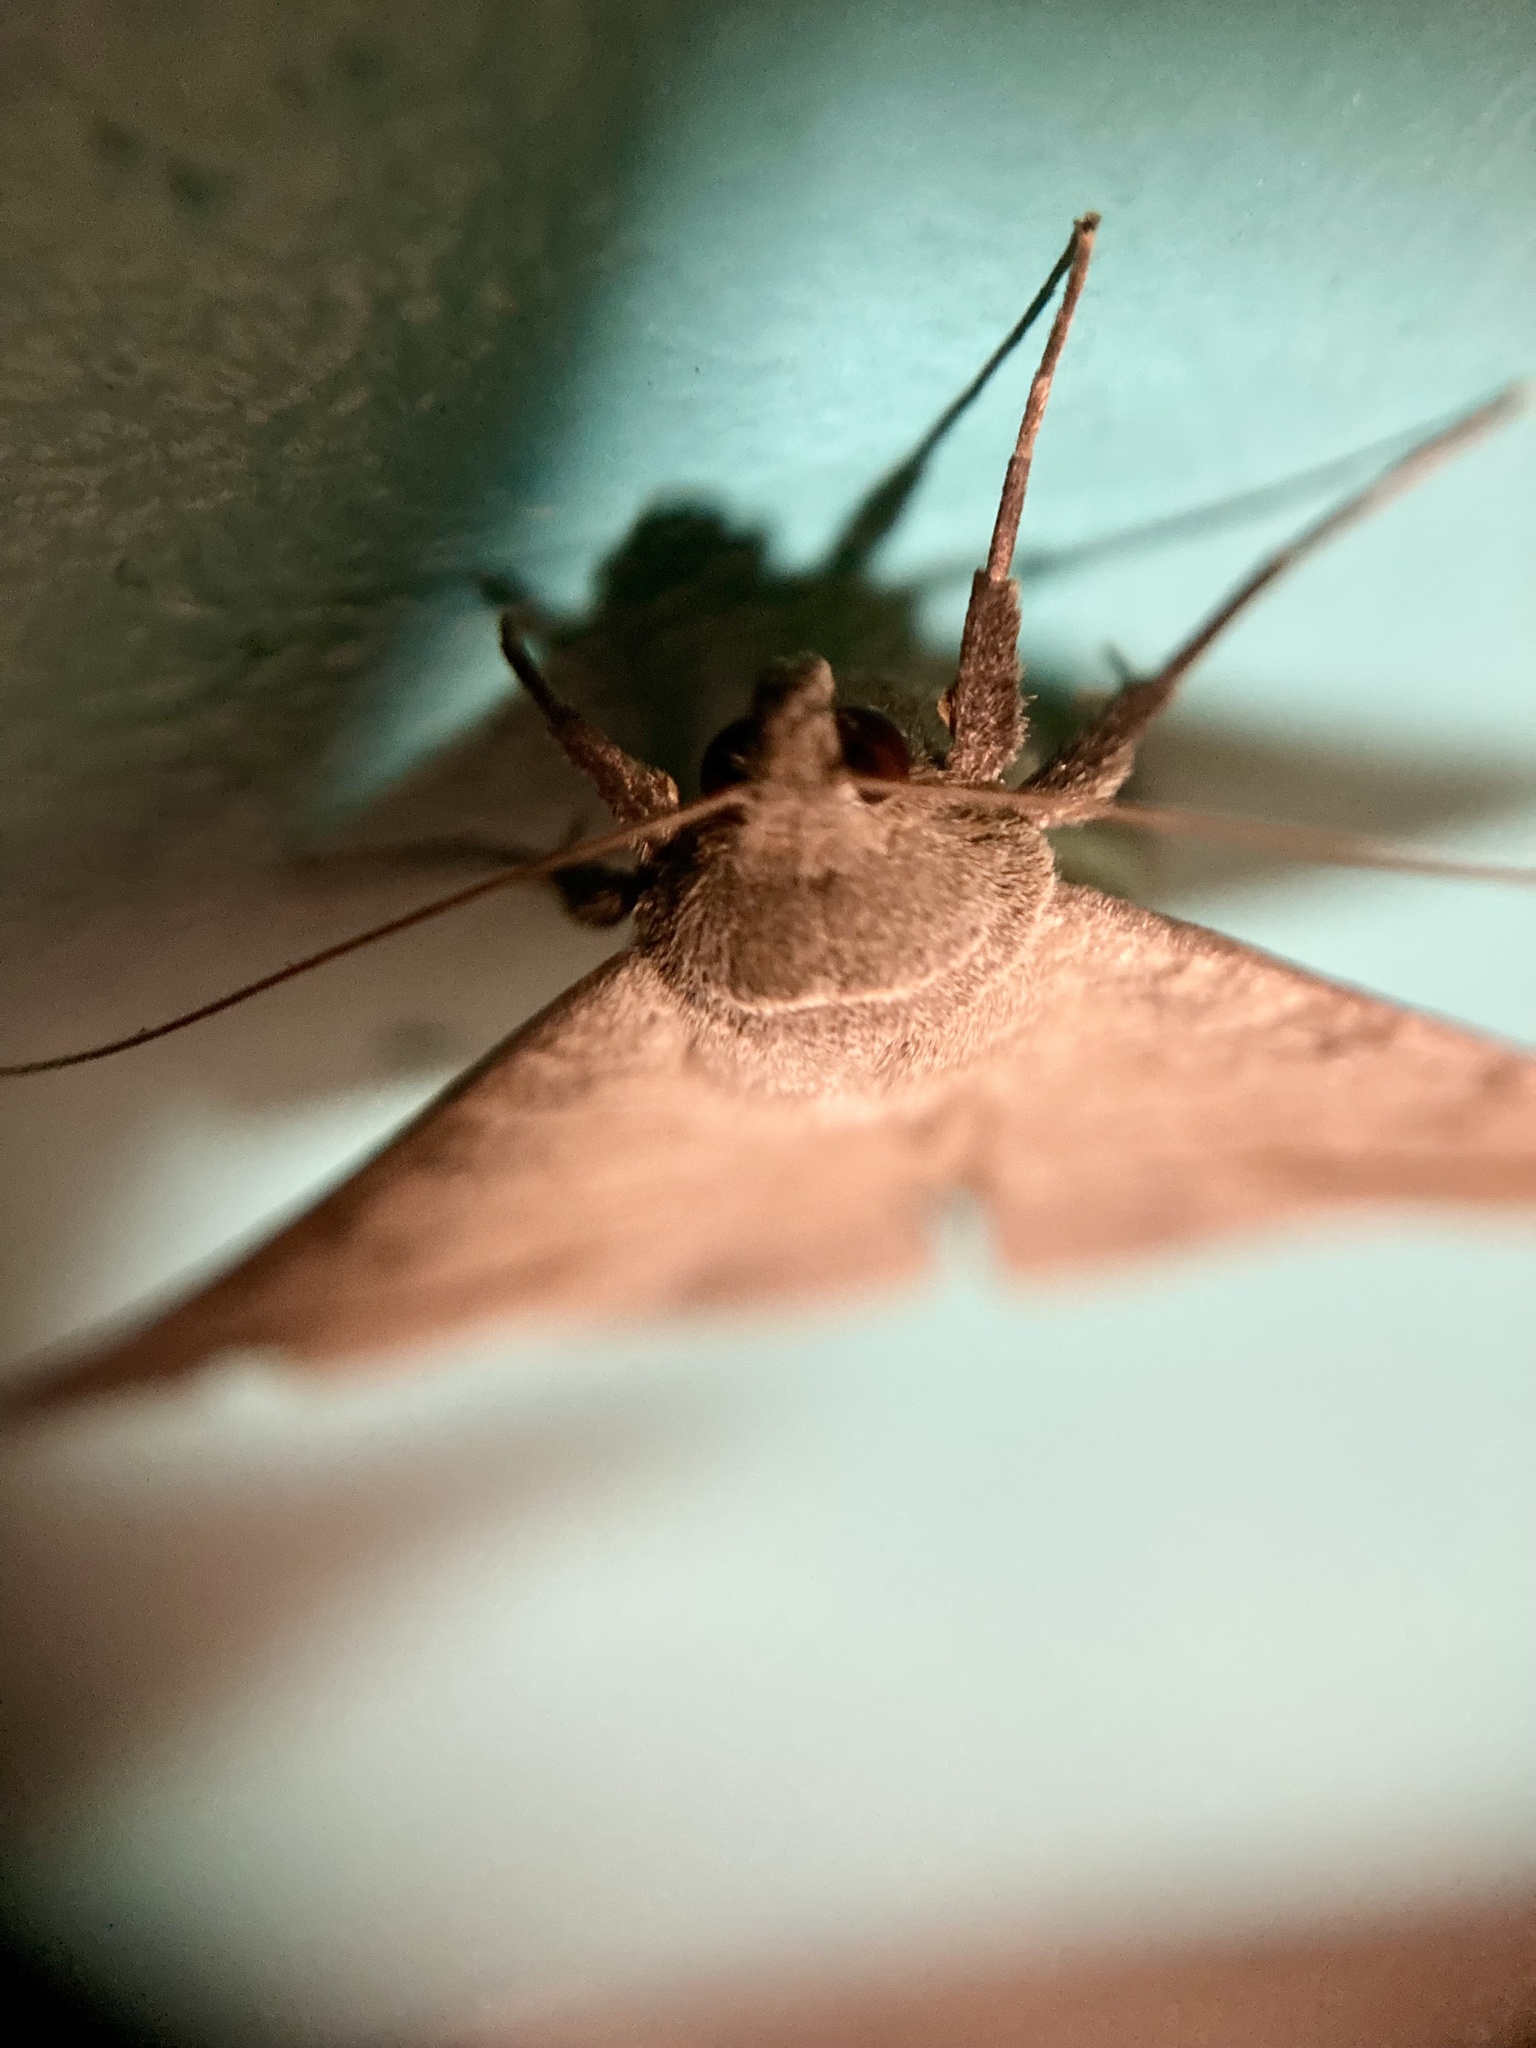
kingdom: Animalia
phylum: Arthropoda
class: Insecta
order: Lepidoptera
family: Erebidae
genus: Mocis
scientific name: Mocis disseverans
